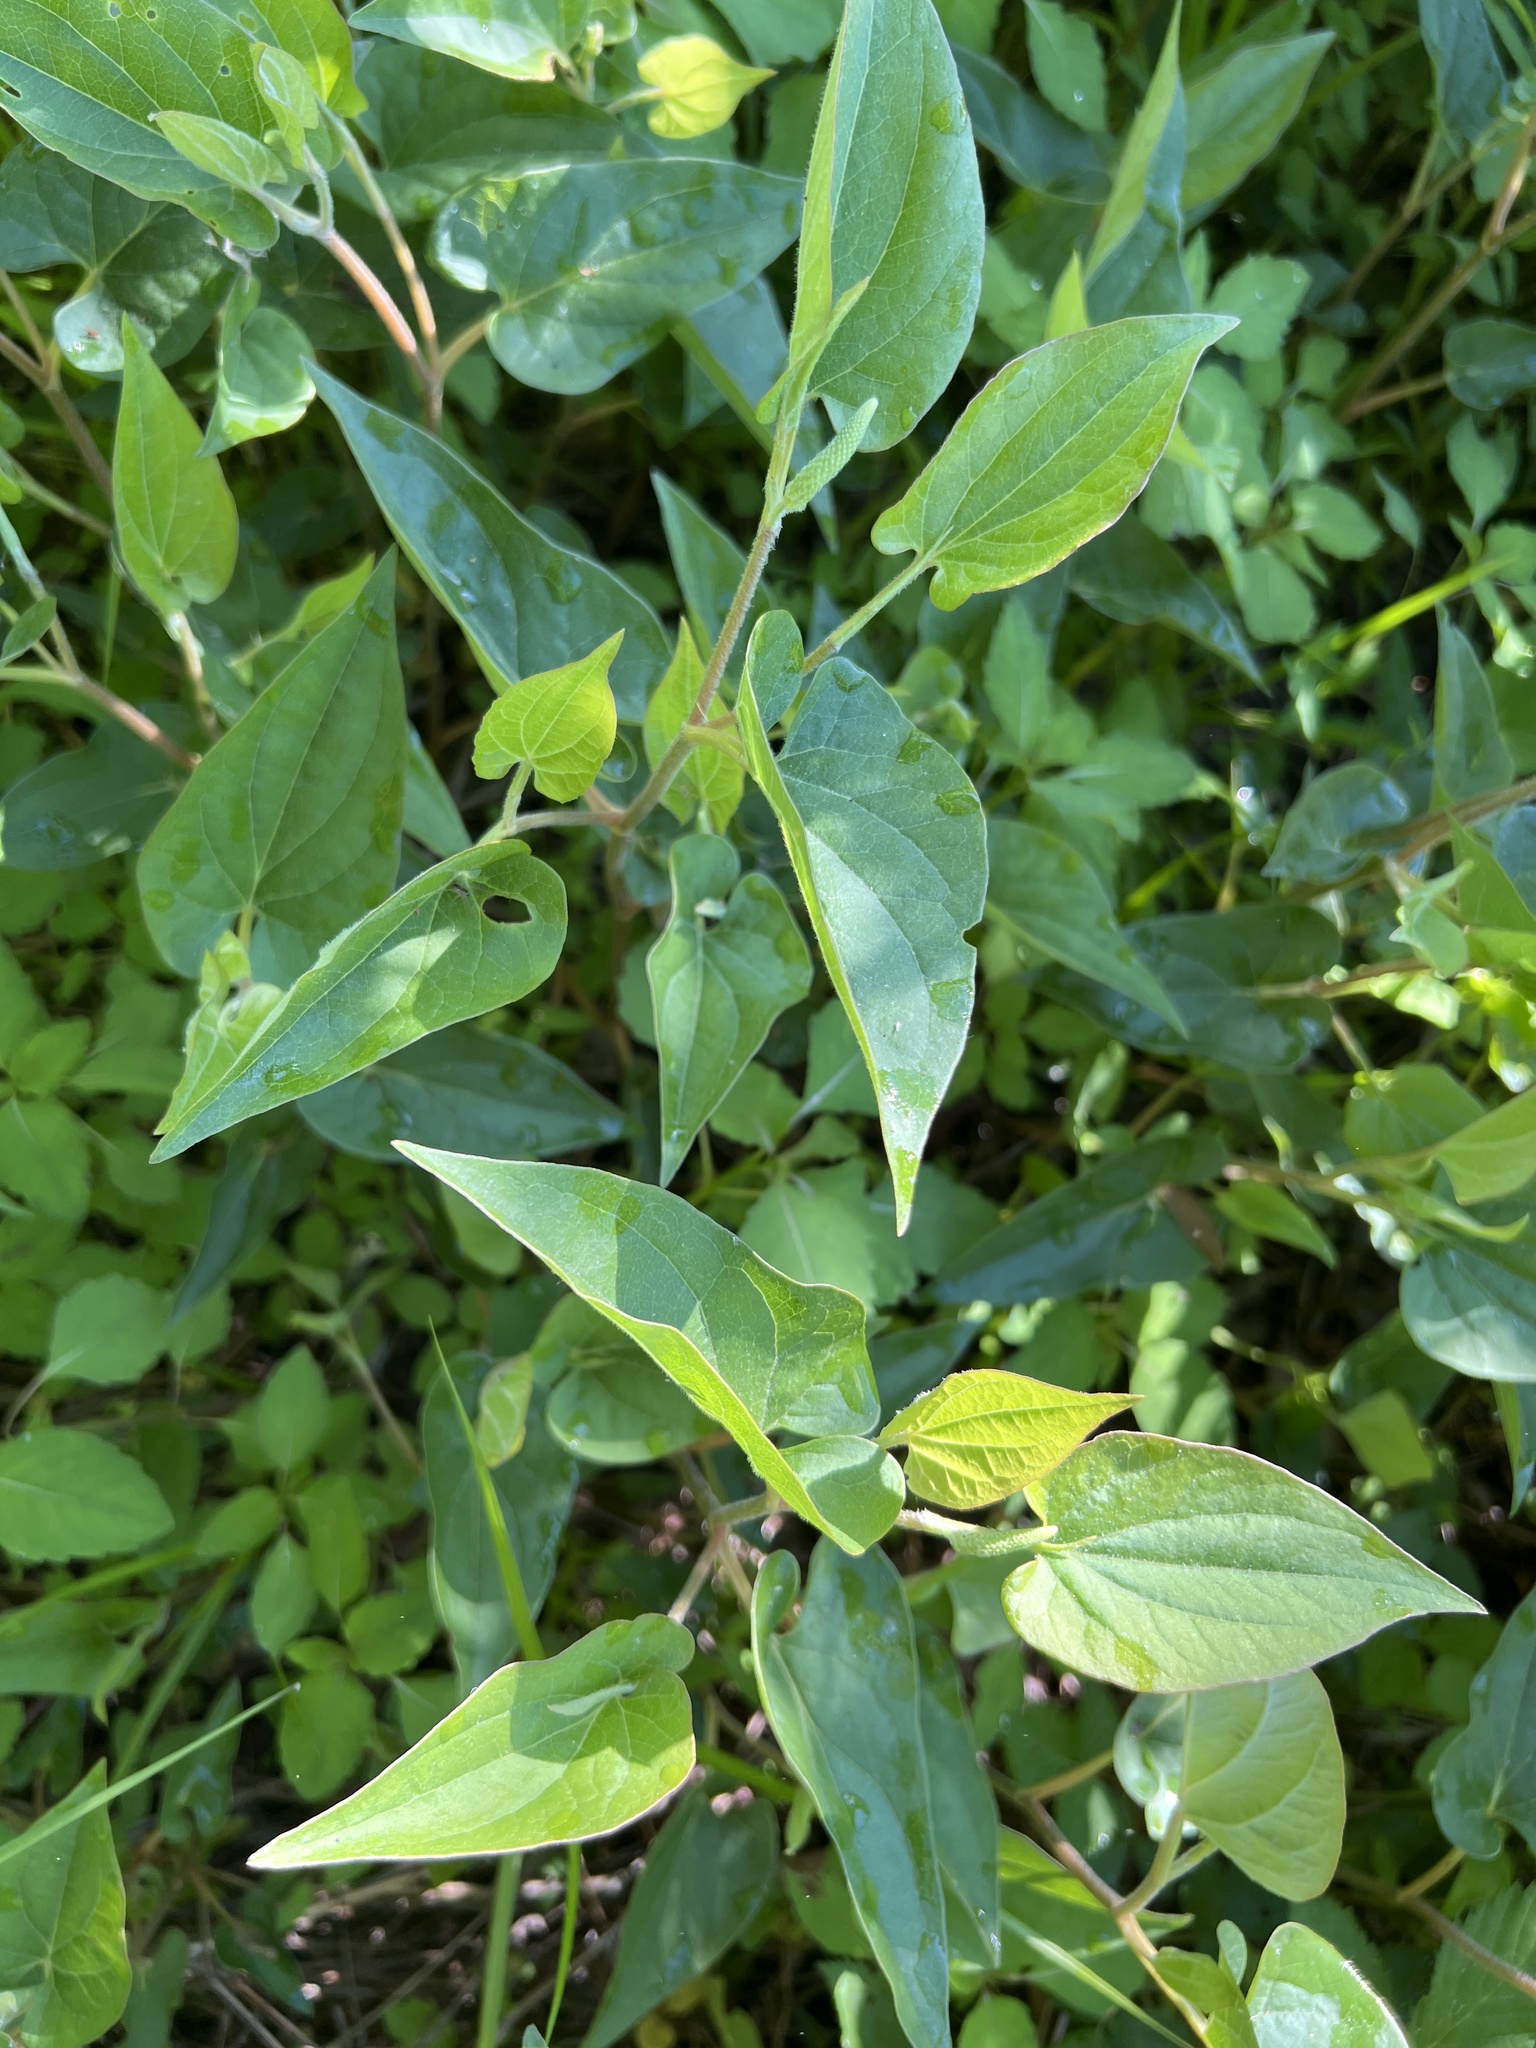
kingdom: Plantae
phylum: Tracheophyta
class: Magnoliopsida
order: Piperales
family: Saururaceae
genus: Saururus
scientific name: Saururus cernuus
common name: Lizard's-tail
